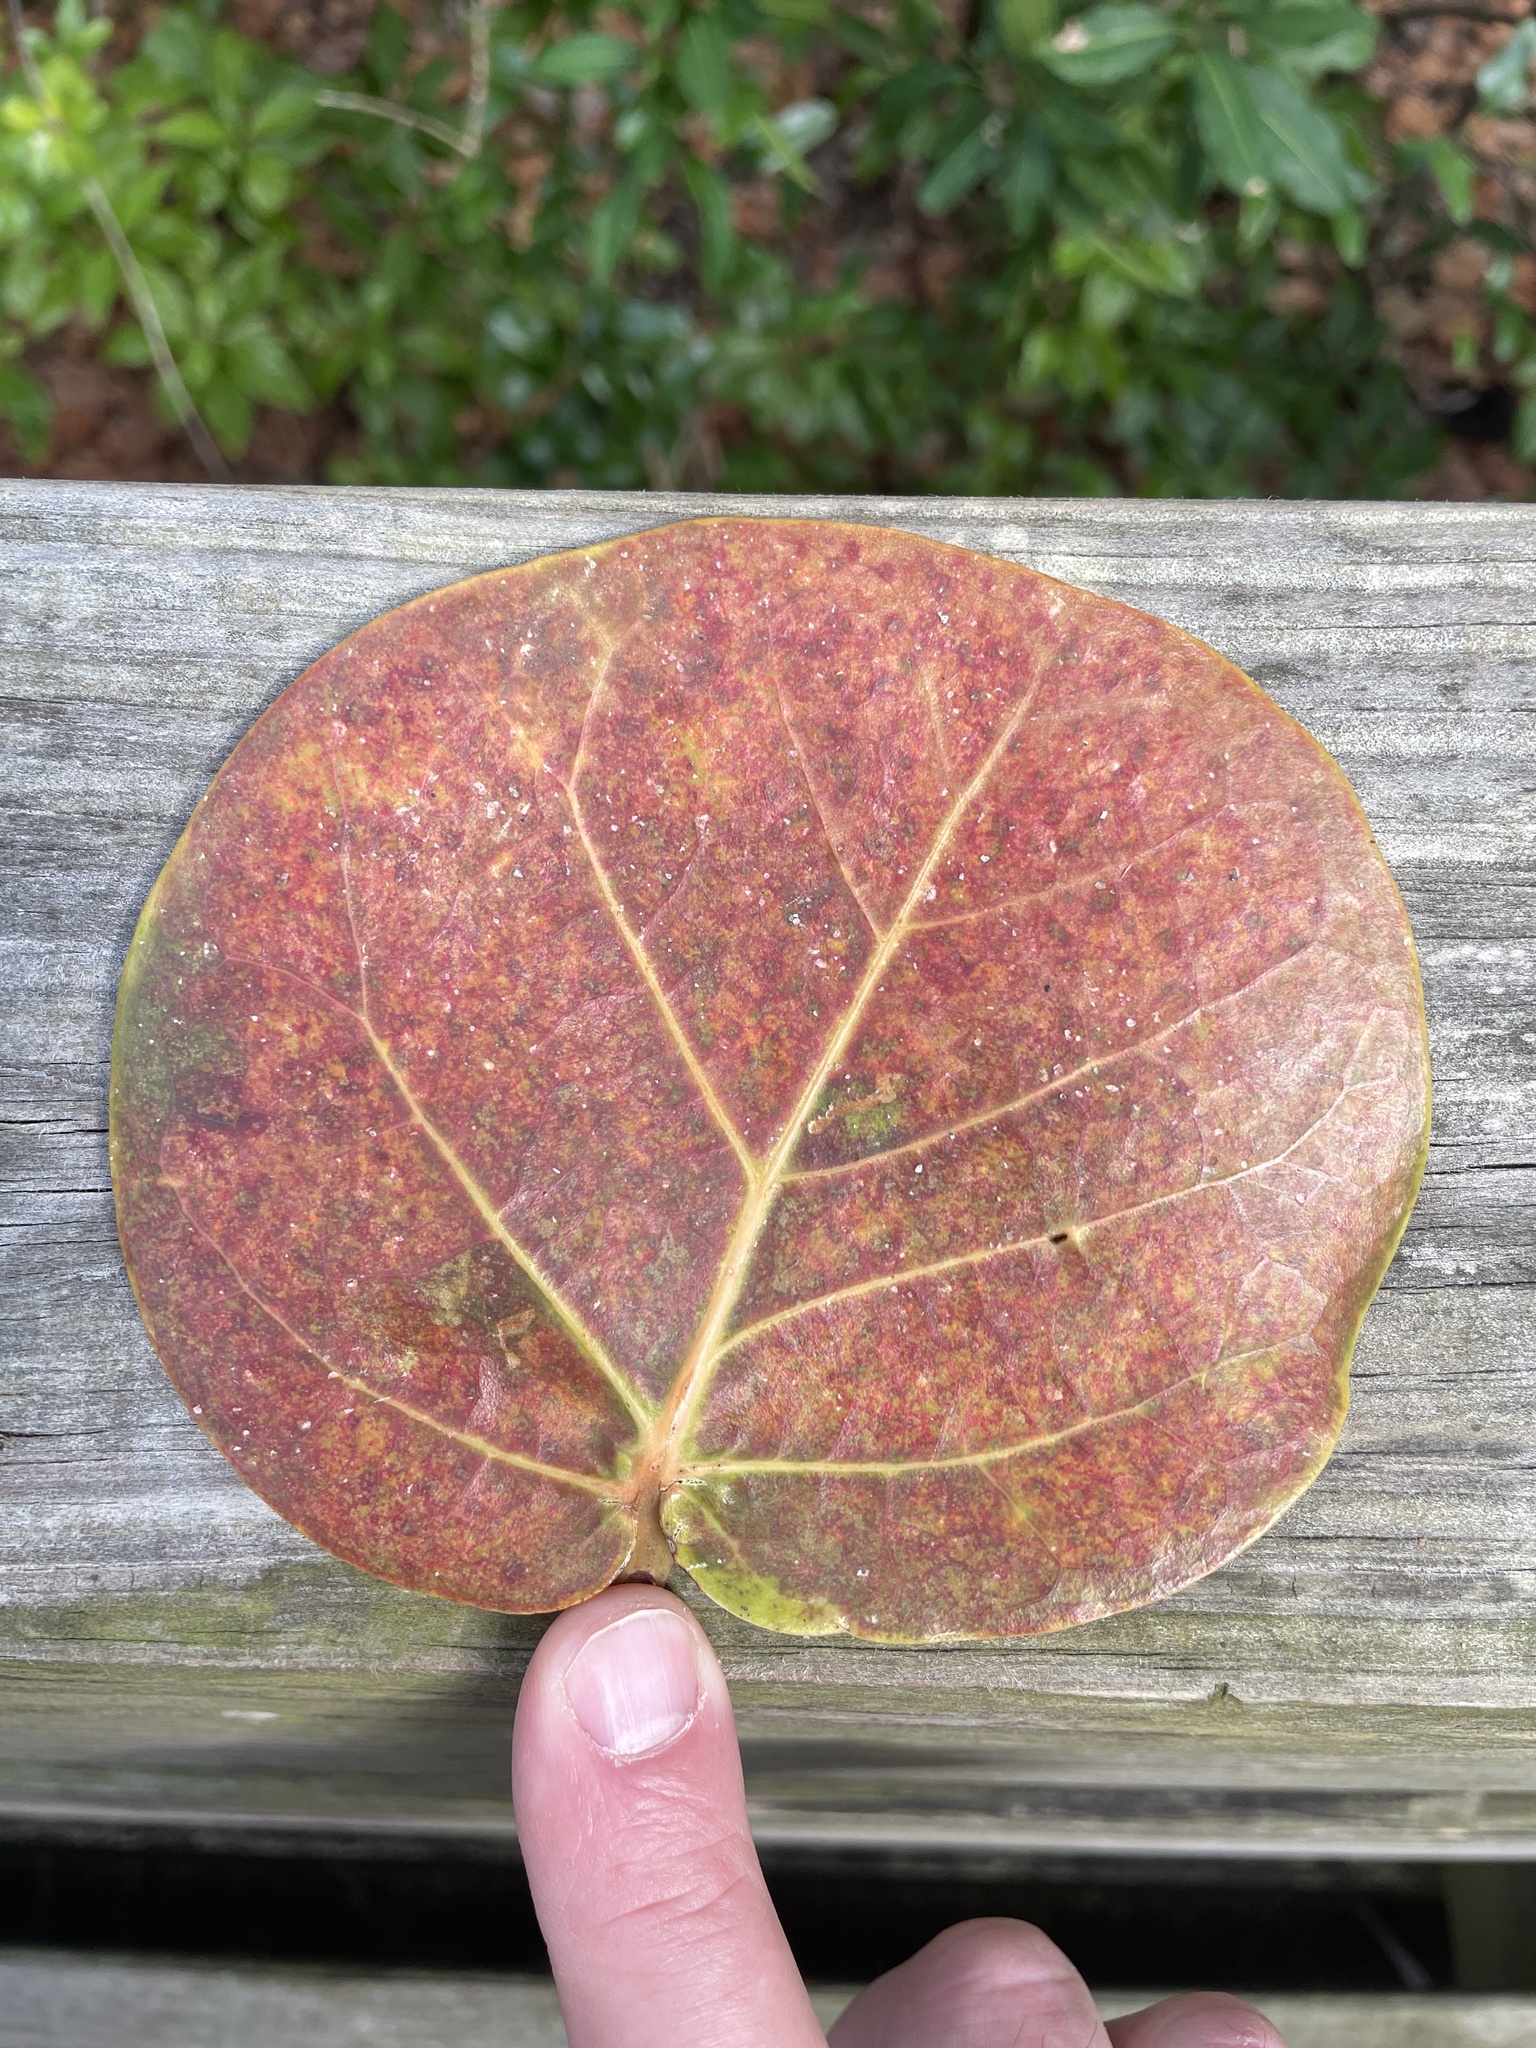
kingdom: Plantae
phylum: Tracheophyta
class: Magnoliopsida
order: Caryophyllales
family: Polygonaceae
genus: Coccoloba
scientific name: Coccoloba uvifera
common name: Seagrape
